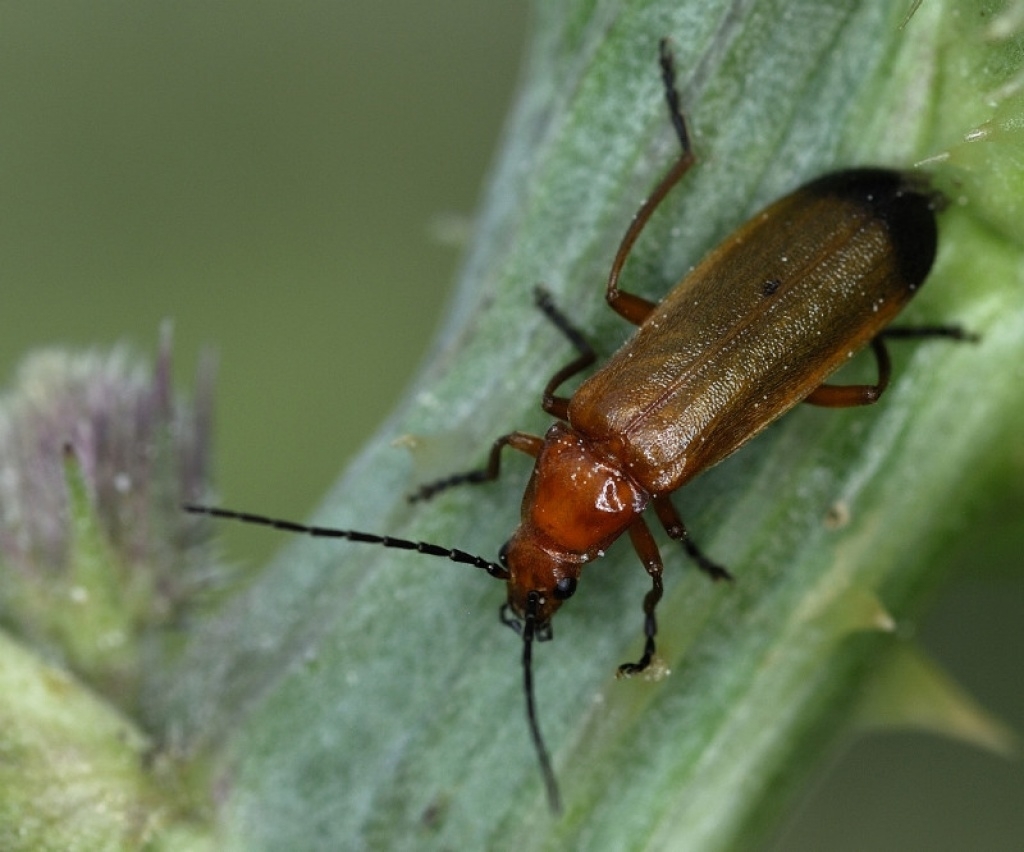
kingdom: Animalia
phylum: Arthropoda
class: Insecta
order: Coleoptera
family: Cantharidae
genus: Rhagonycha
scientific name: Rhagonycha fulva
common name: Common red soldier beetle
